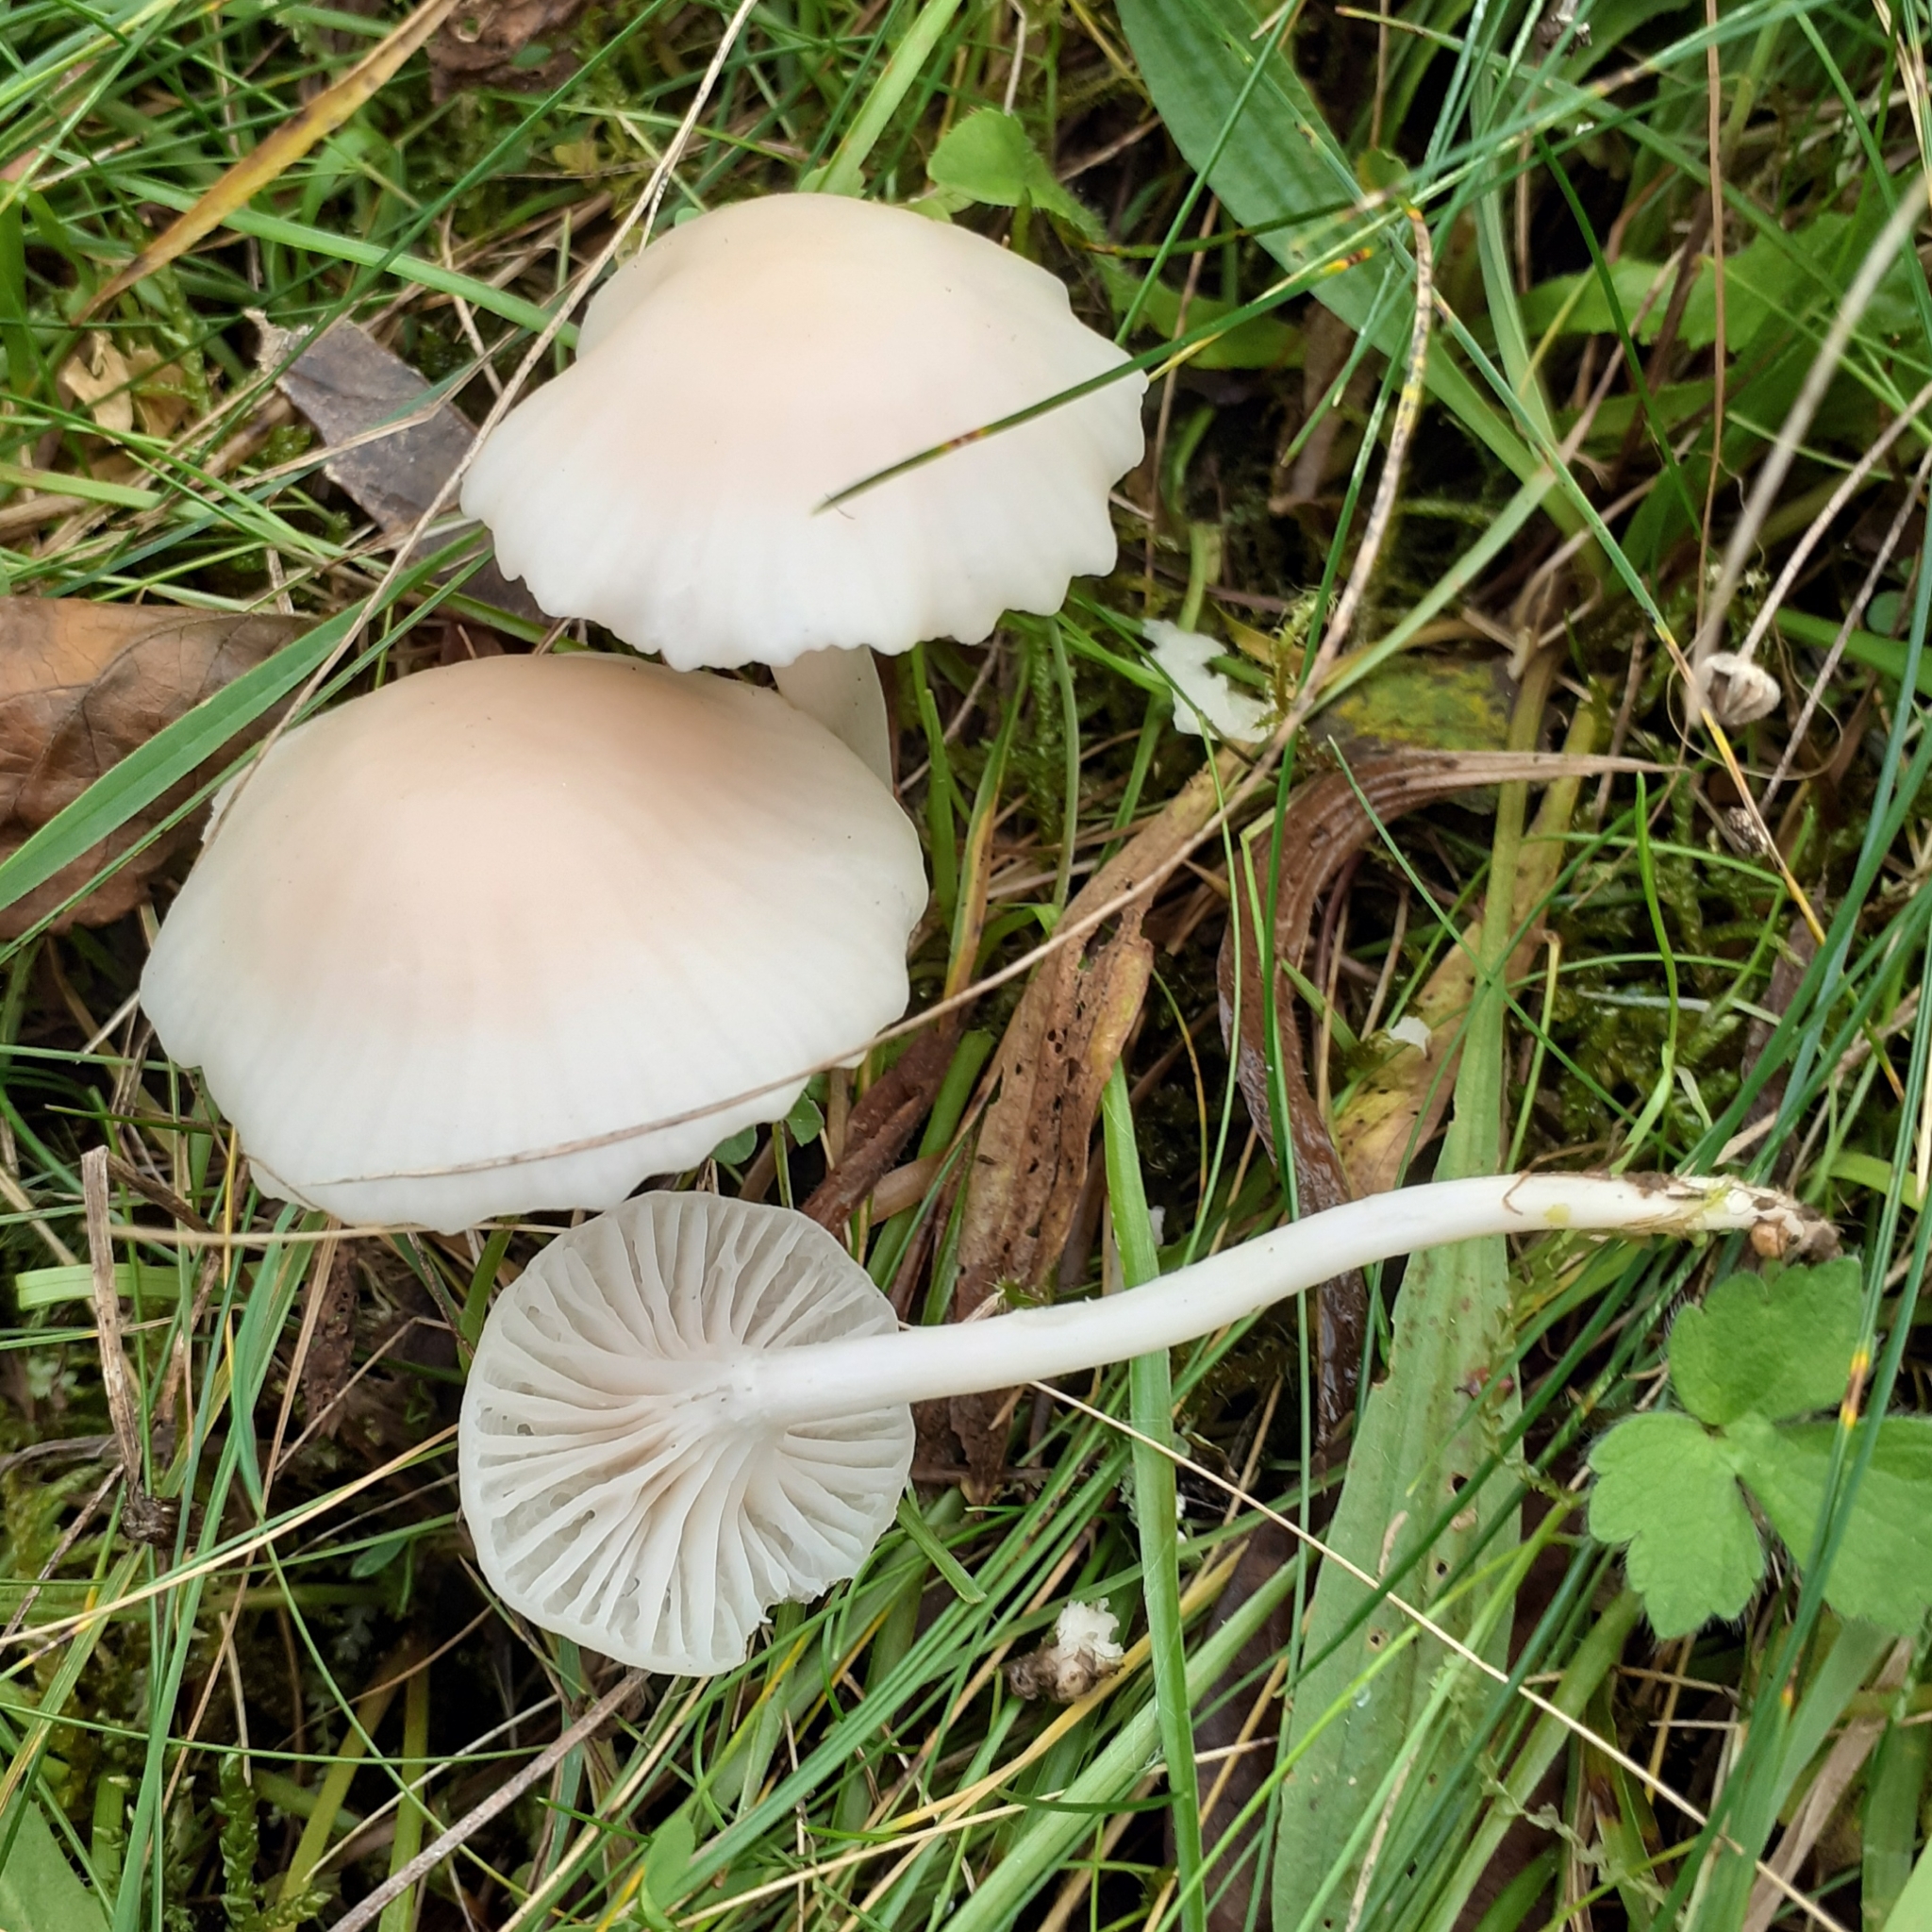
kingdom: Fungi
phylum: Basidiomycota
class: Agaricomycetes
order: Agaricales
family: Hygrophoraceae
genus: Cuphophyllus
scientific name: Cuphophyllus virgineus
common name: Snowy waxcap
